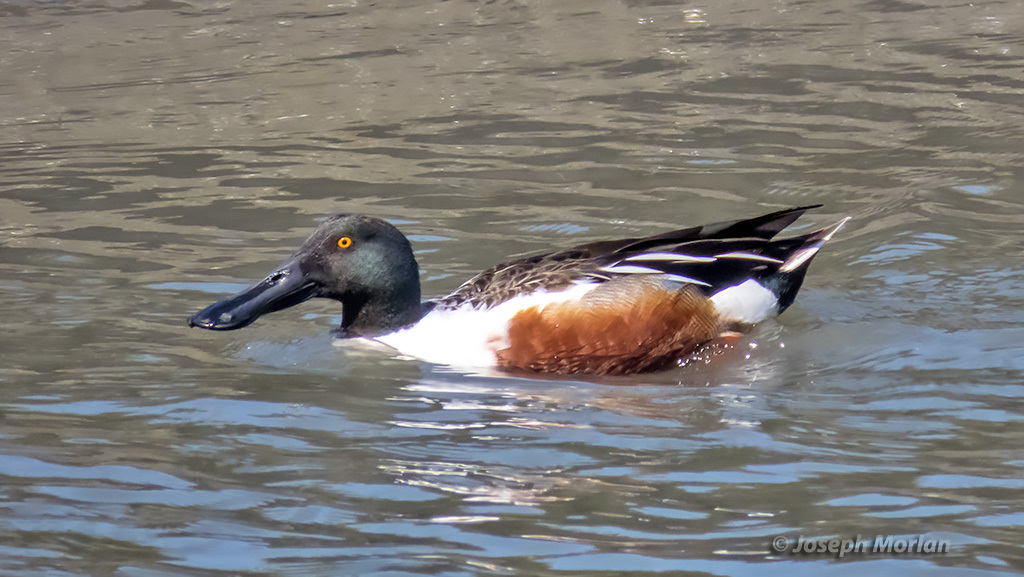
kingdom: Animalia
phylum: Chordata
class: Aves
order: Anseriformes
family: Anatidae
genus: Spatula
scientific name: Spatula clypeata
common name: Northern shoveler
